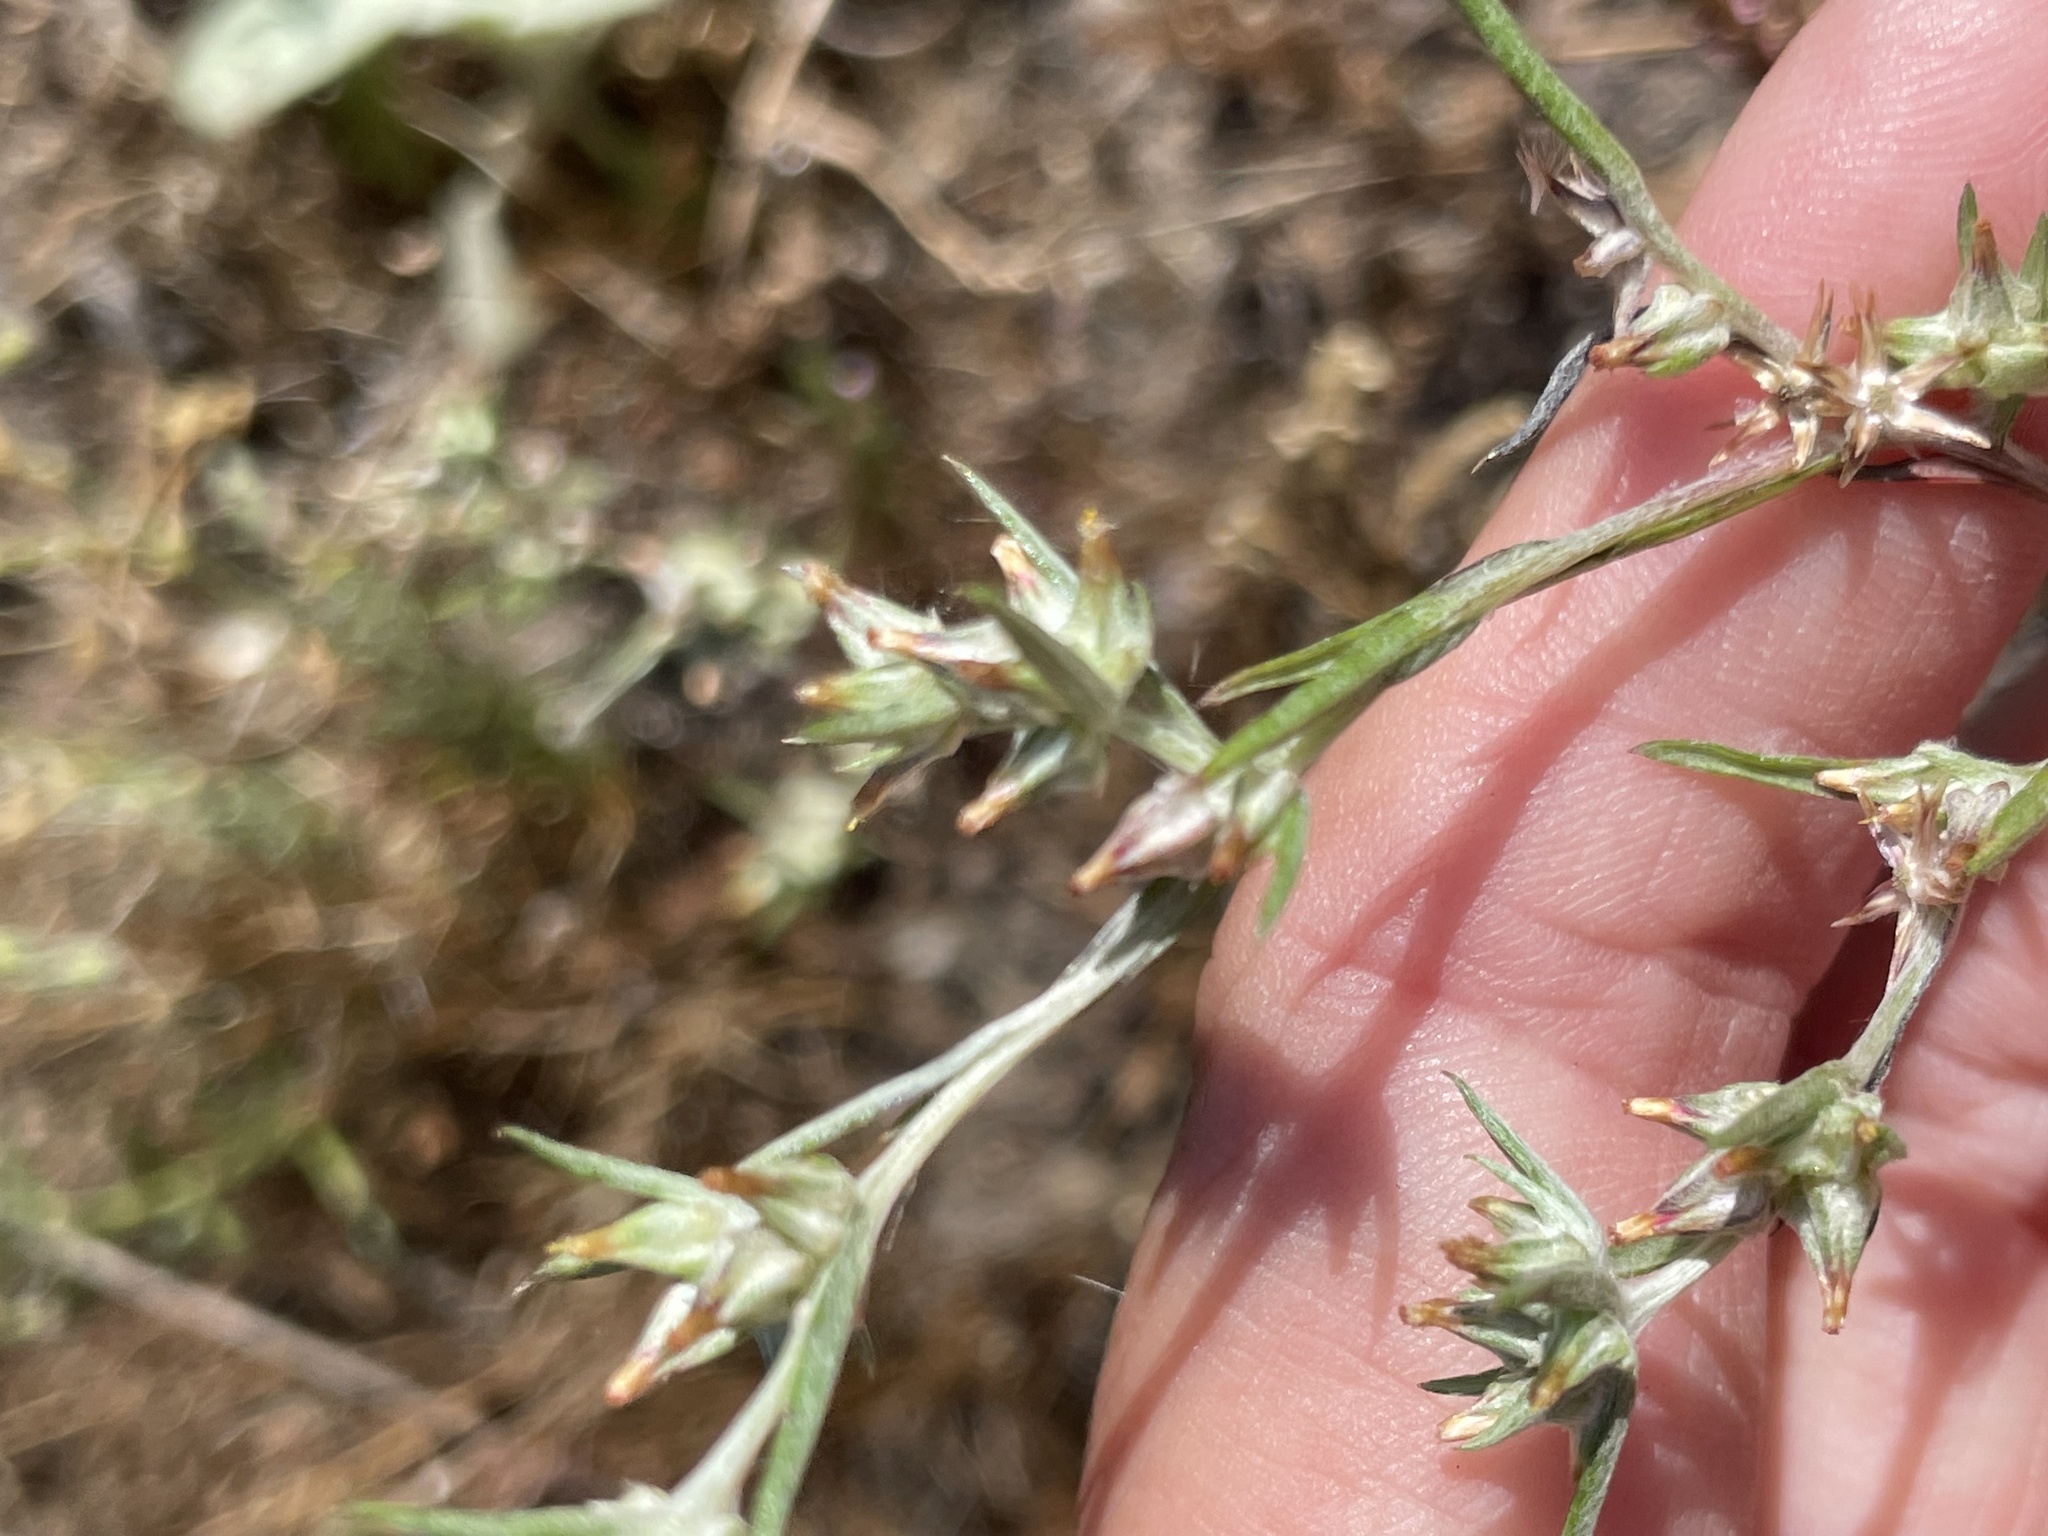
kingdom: Plantae
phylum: Tracheophyta
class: Magnoliopsida
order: Asterales
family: Asteraceae
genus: Logfia
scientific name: Logfia gallica
